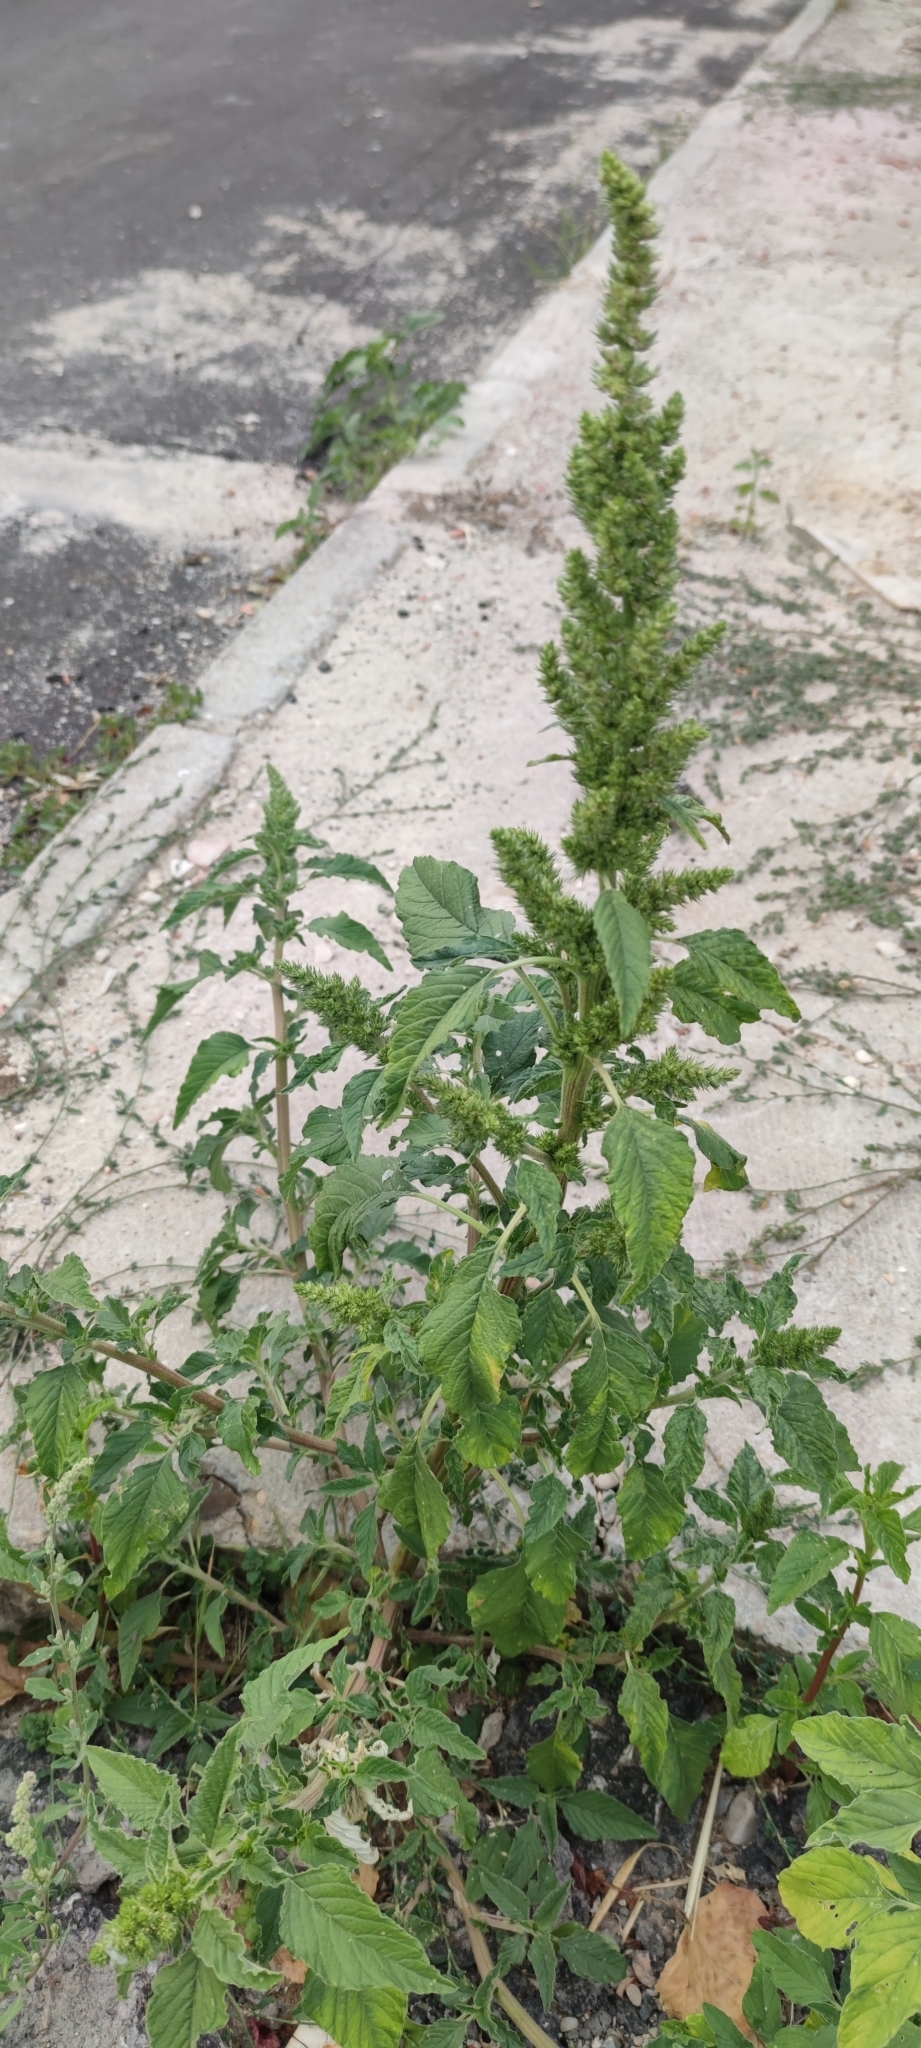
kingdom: Plantae
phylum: Tracheophyta
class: Magnoliopsida
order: Caryophyllales
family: Amaranthaceae
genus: Amaranthus
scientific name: Amaranthus retroflexus
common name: Redroot amaranth
